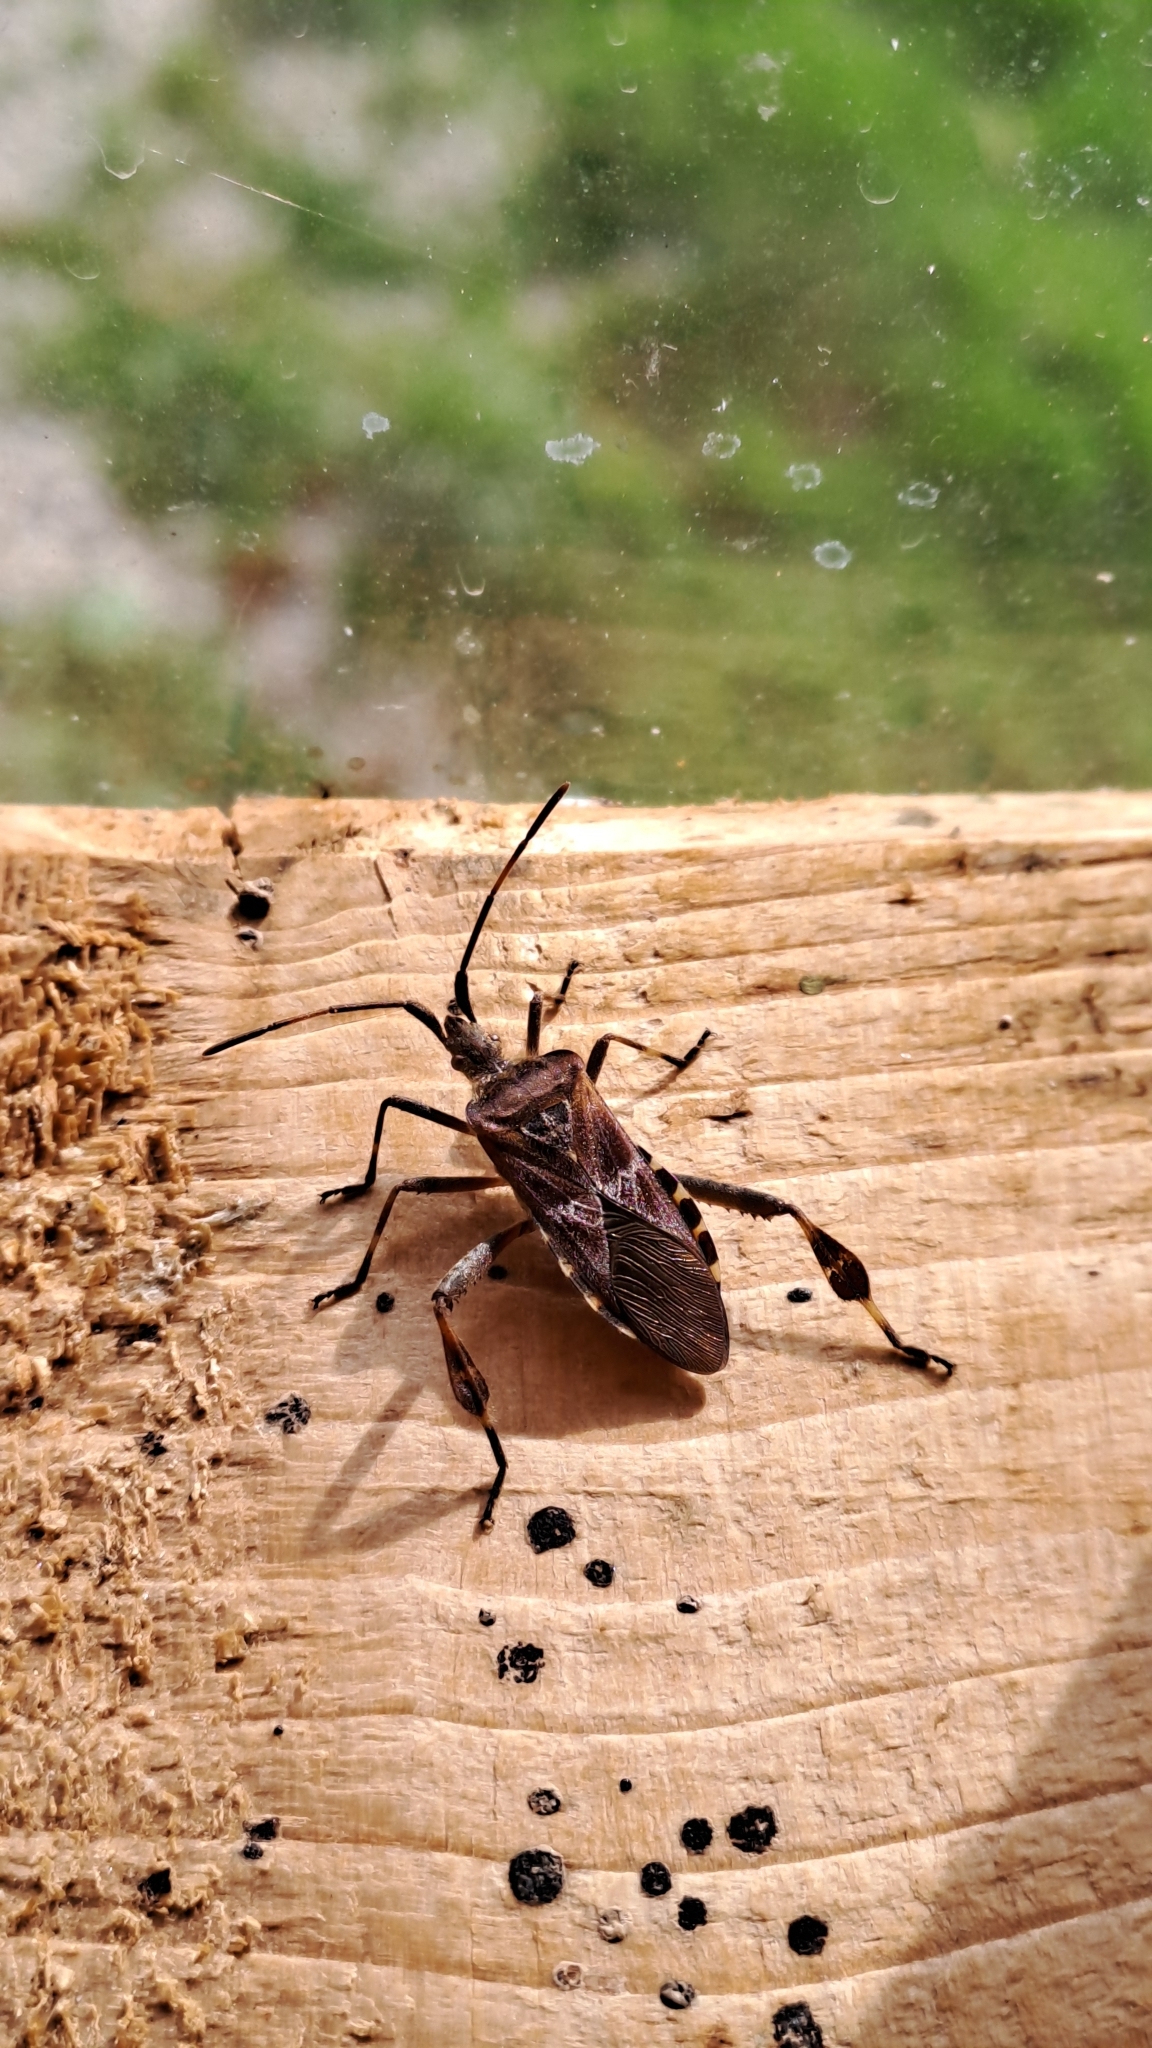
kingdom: Animalia
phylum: Arthropoda
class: Insecta
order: Hemiptera
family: Coreidae
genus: Leptoglossus
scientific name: Leptoglossus occidentalis
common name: Western conifer-seed bug
